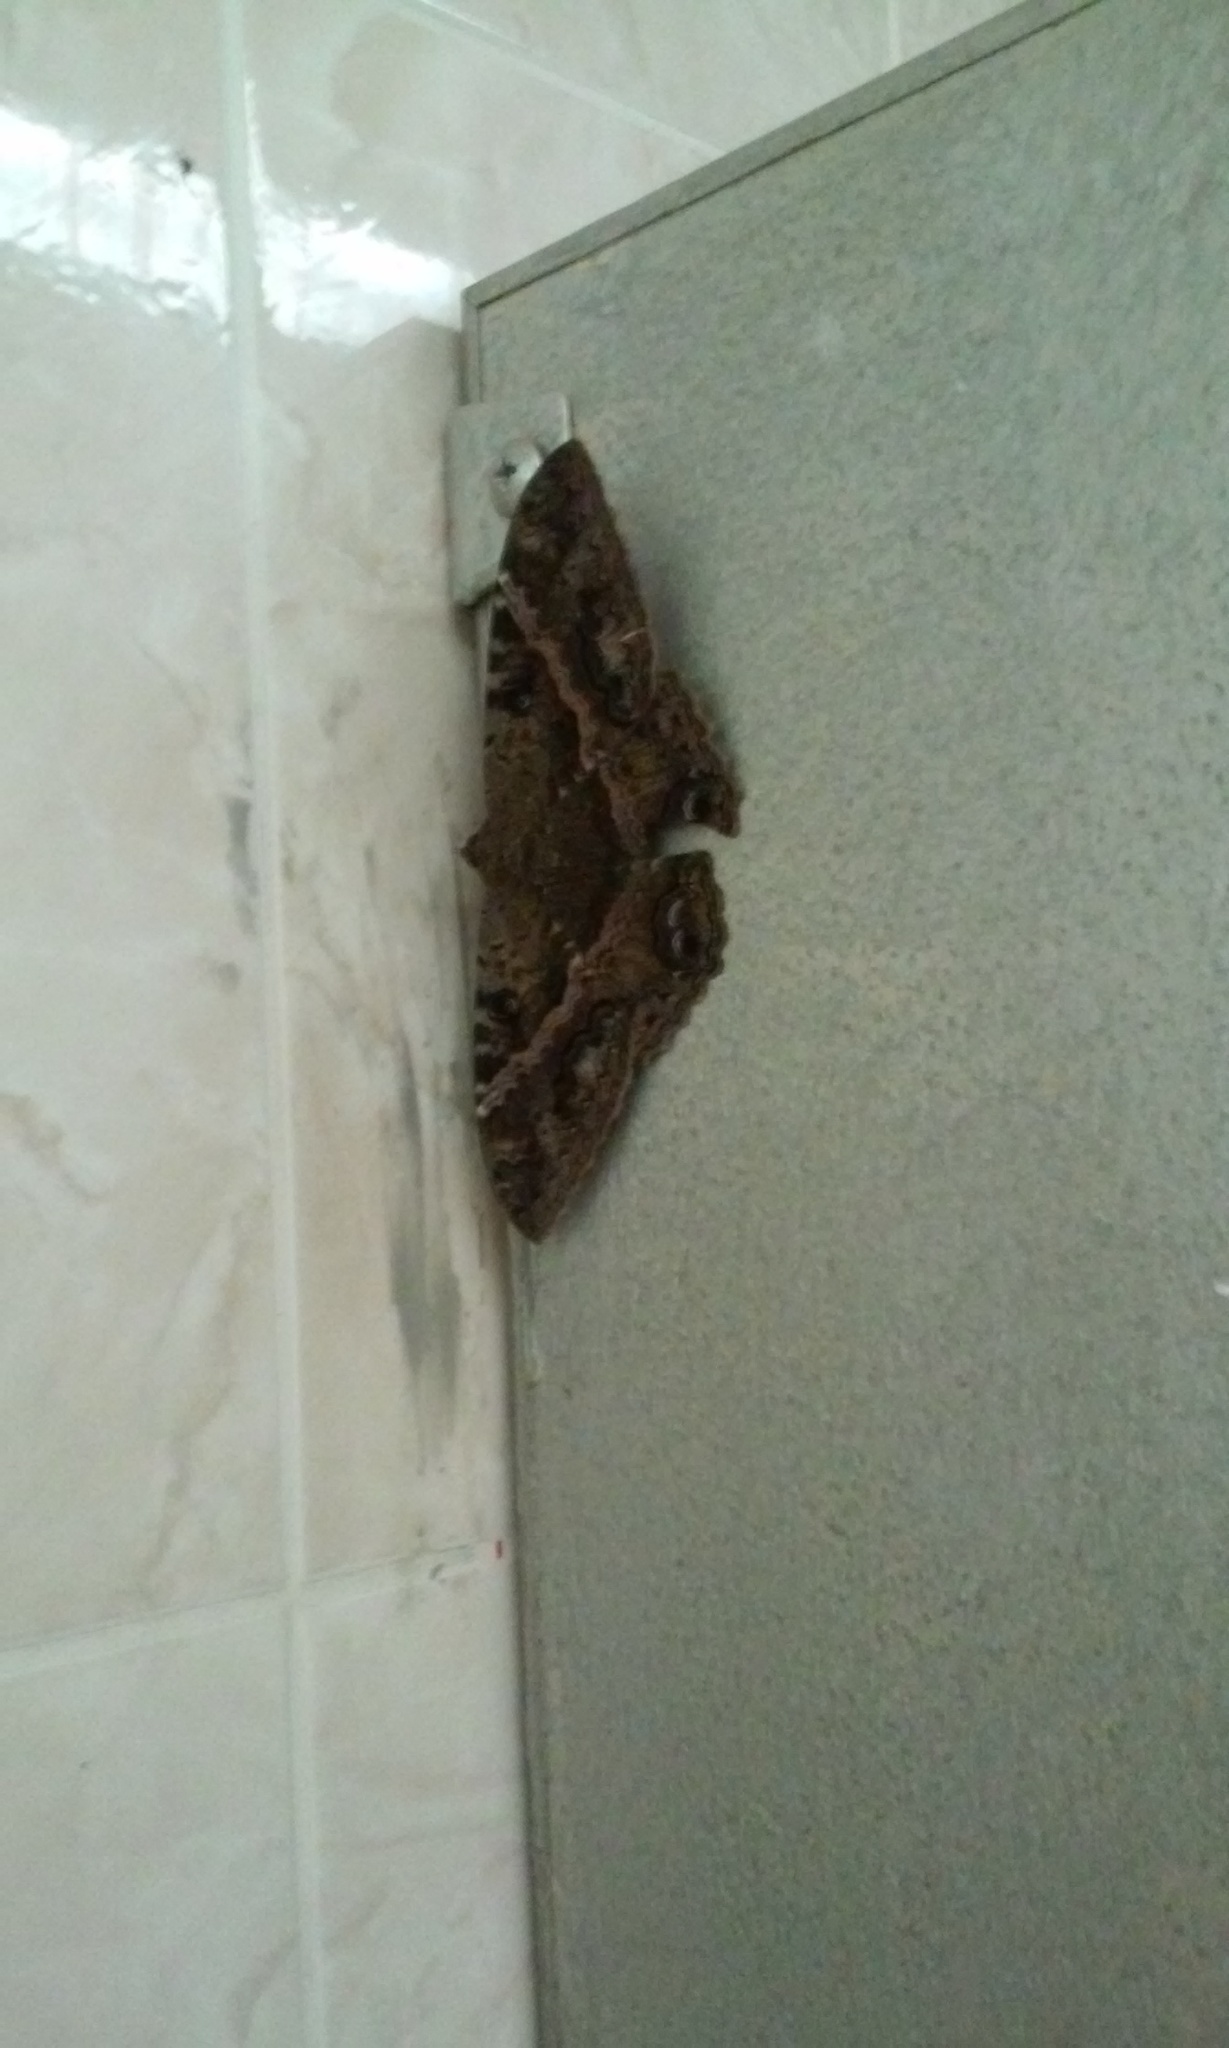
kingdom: Animalia
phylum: Arthropoda
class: Insecta
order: Lepidoptera
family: Erebidae
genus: Ascalapha
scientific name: Ascalapha odorata
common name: Black witch
